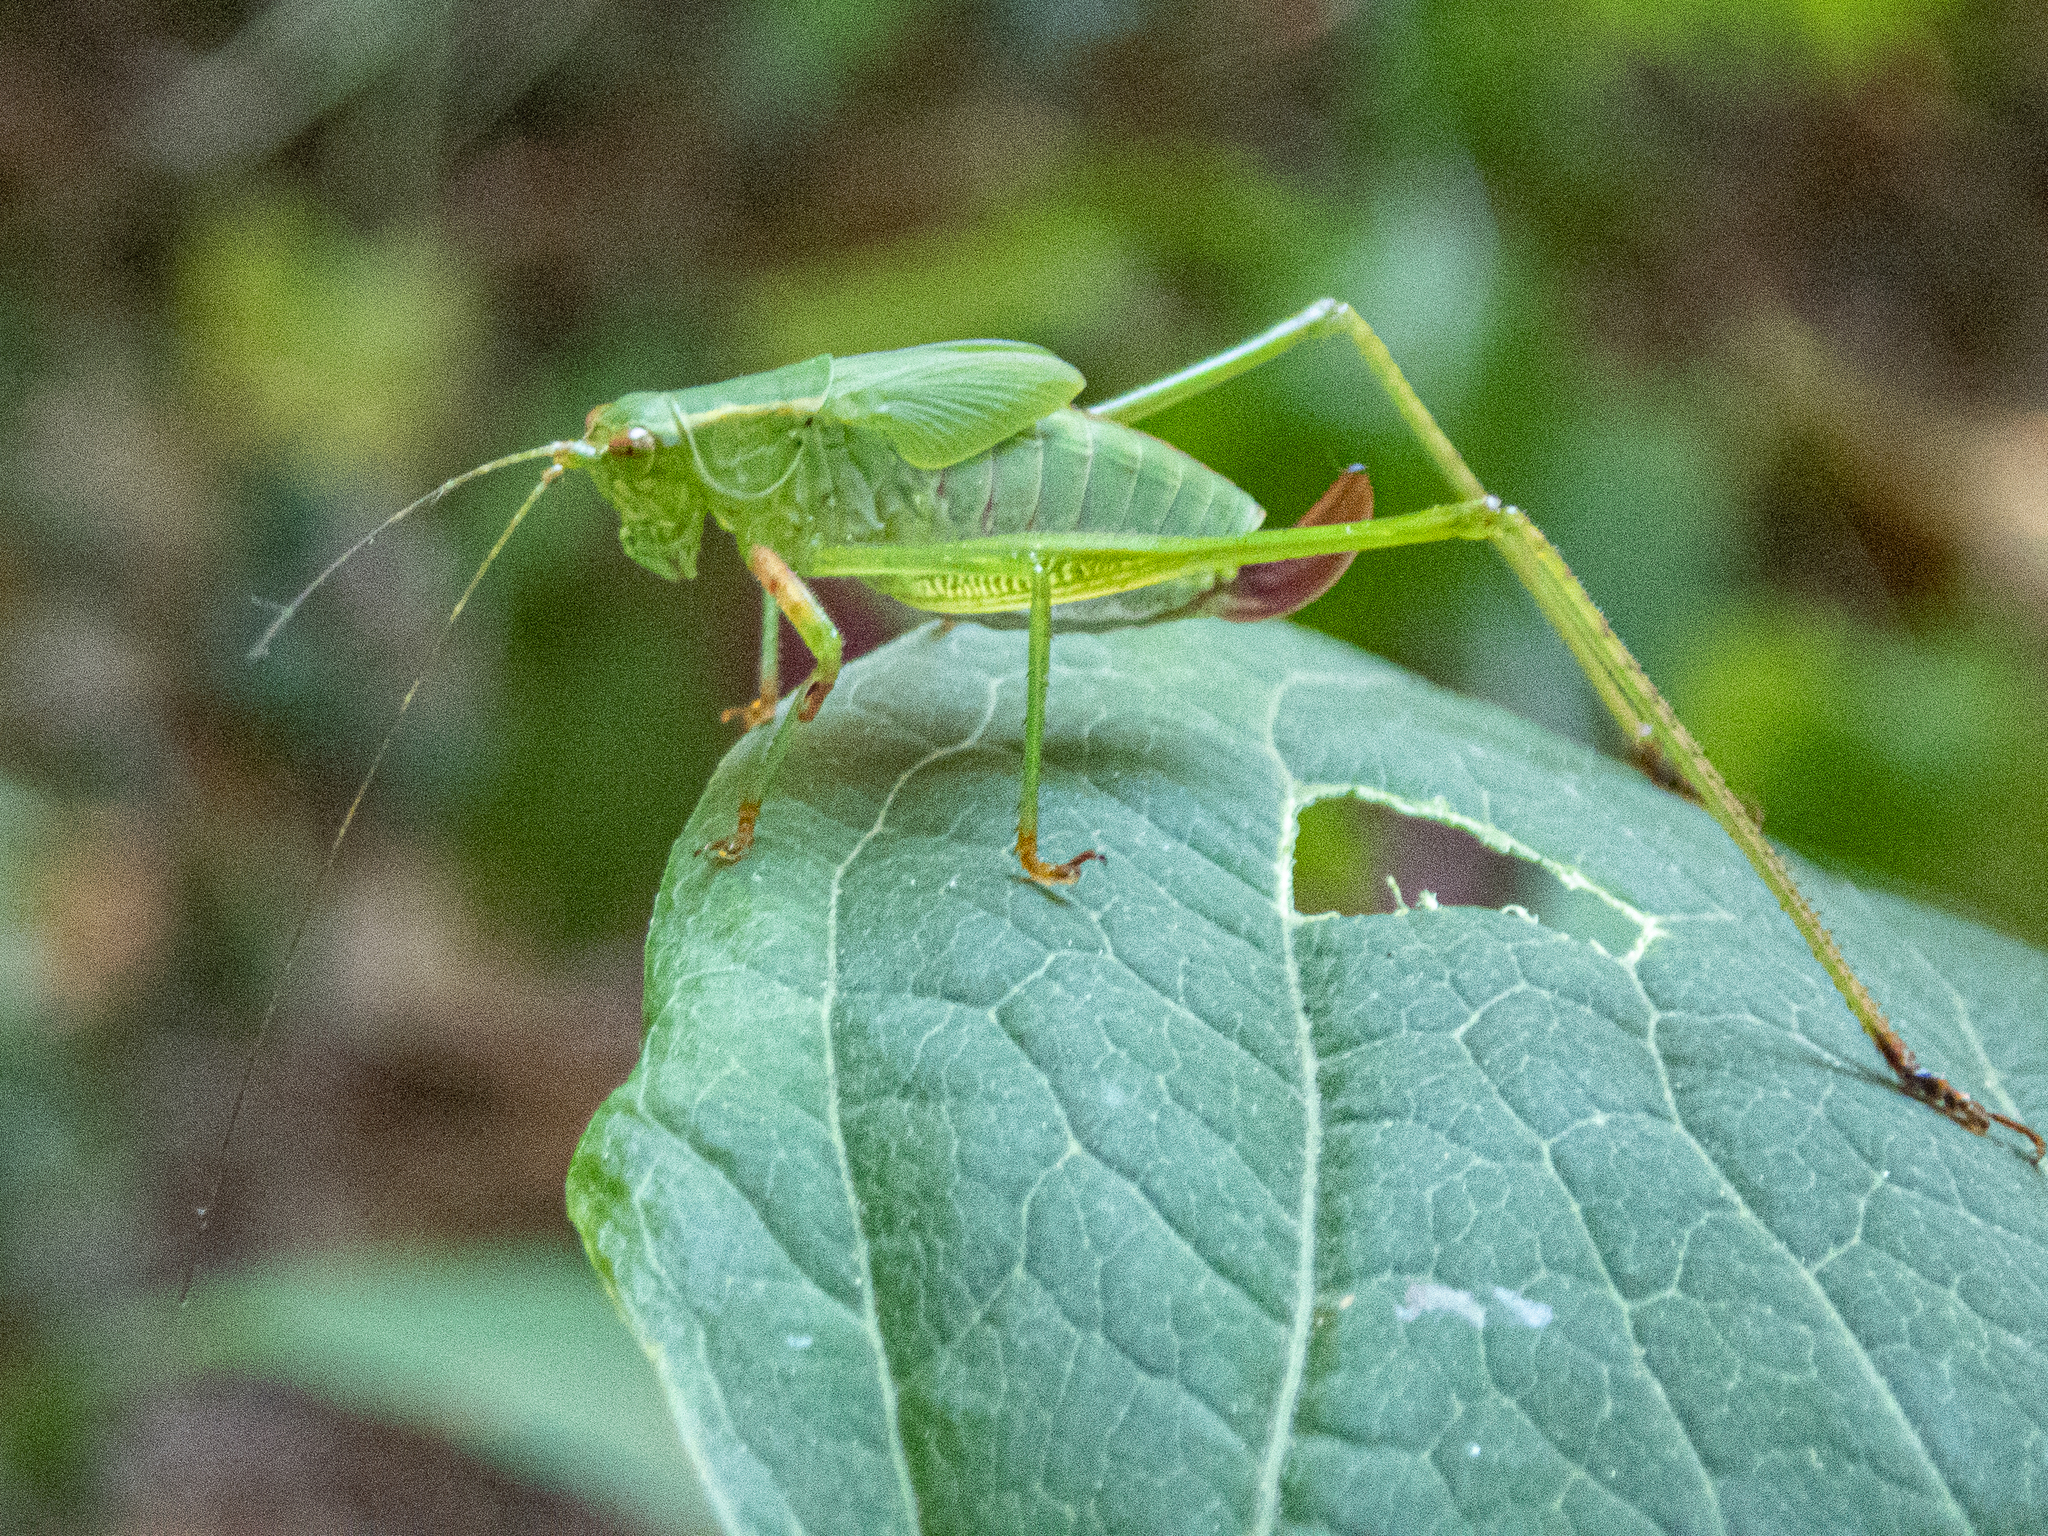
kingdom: Animalia
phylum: Arthropoda
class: Insecta
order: Orthoptera
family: Tettigoniidae
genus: Scudderia
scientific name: Scudderia furcata
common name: Fork-tailed bush katydid
